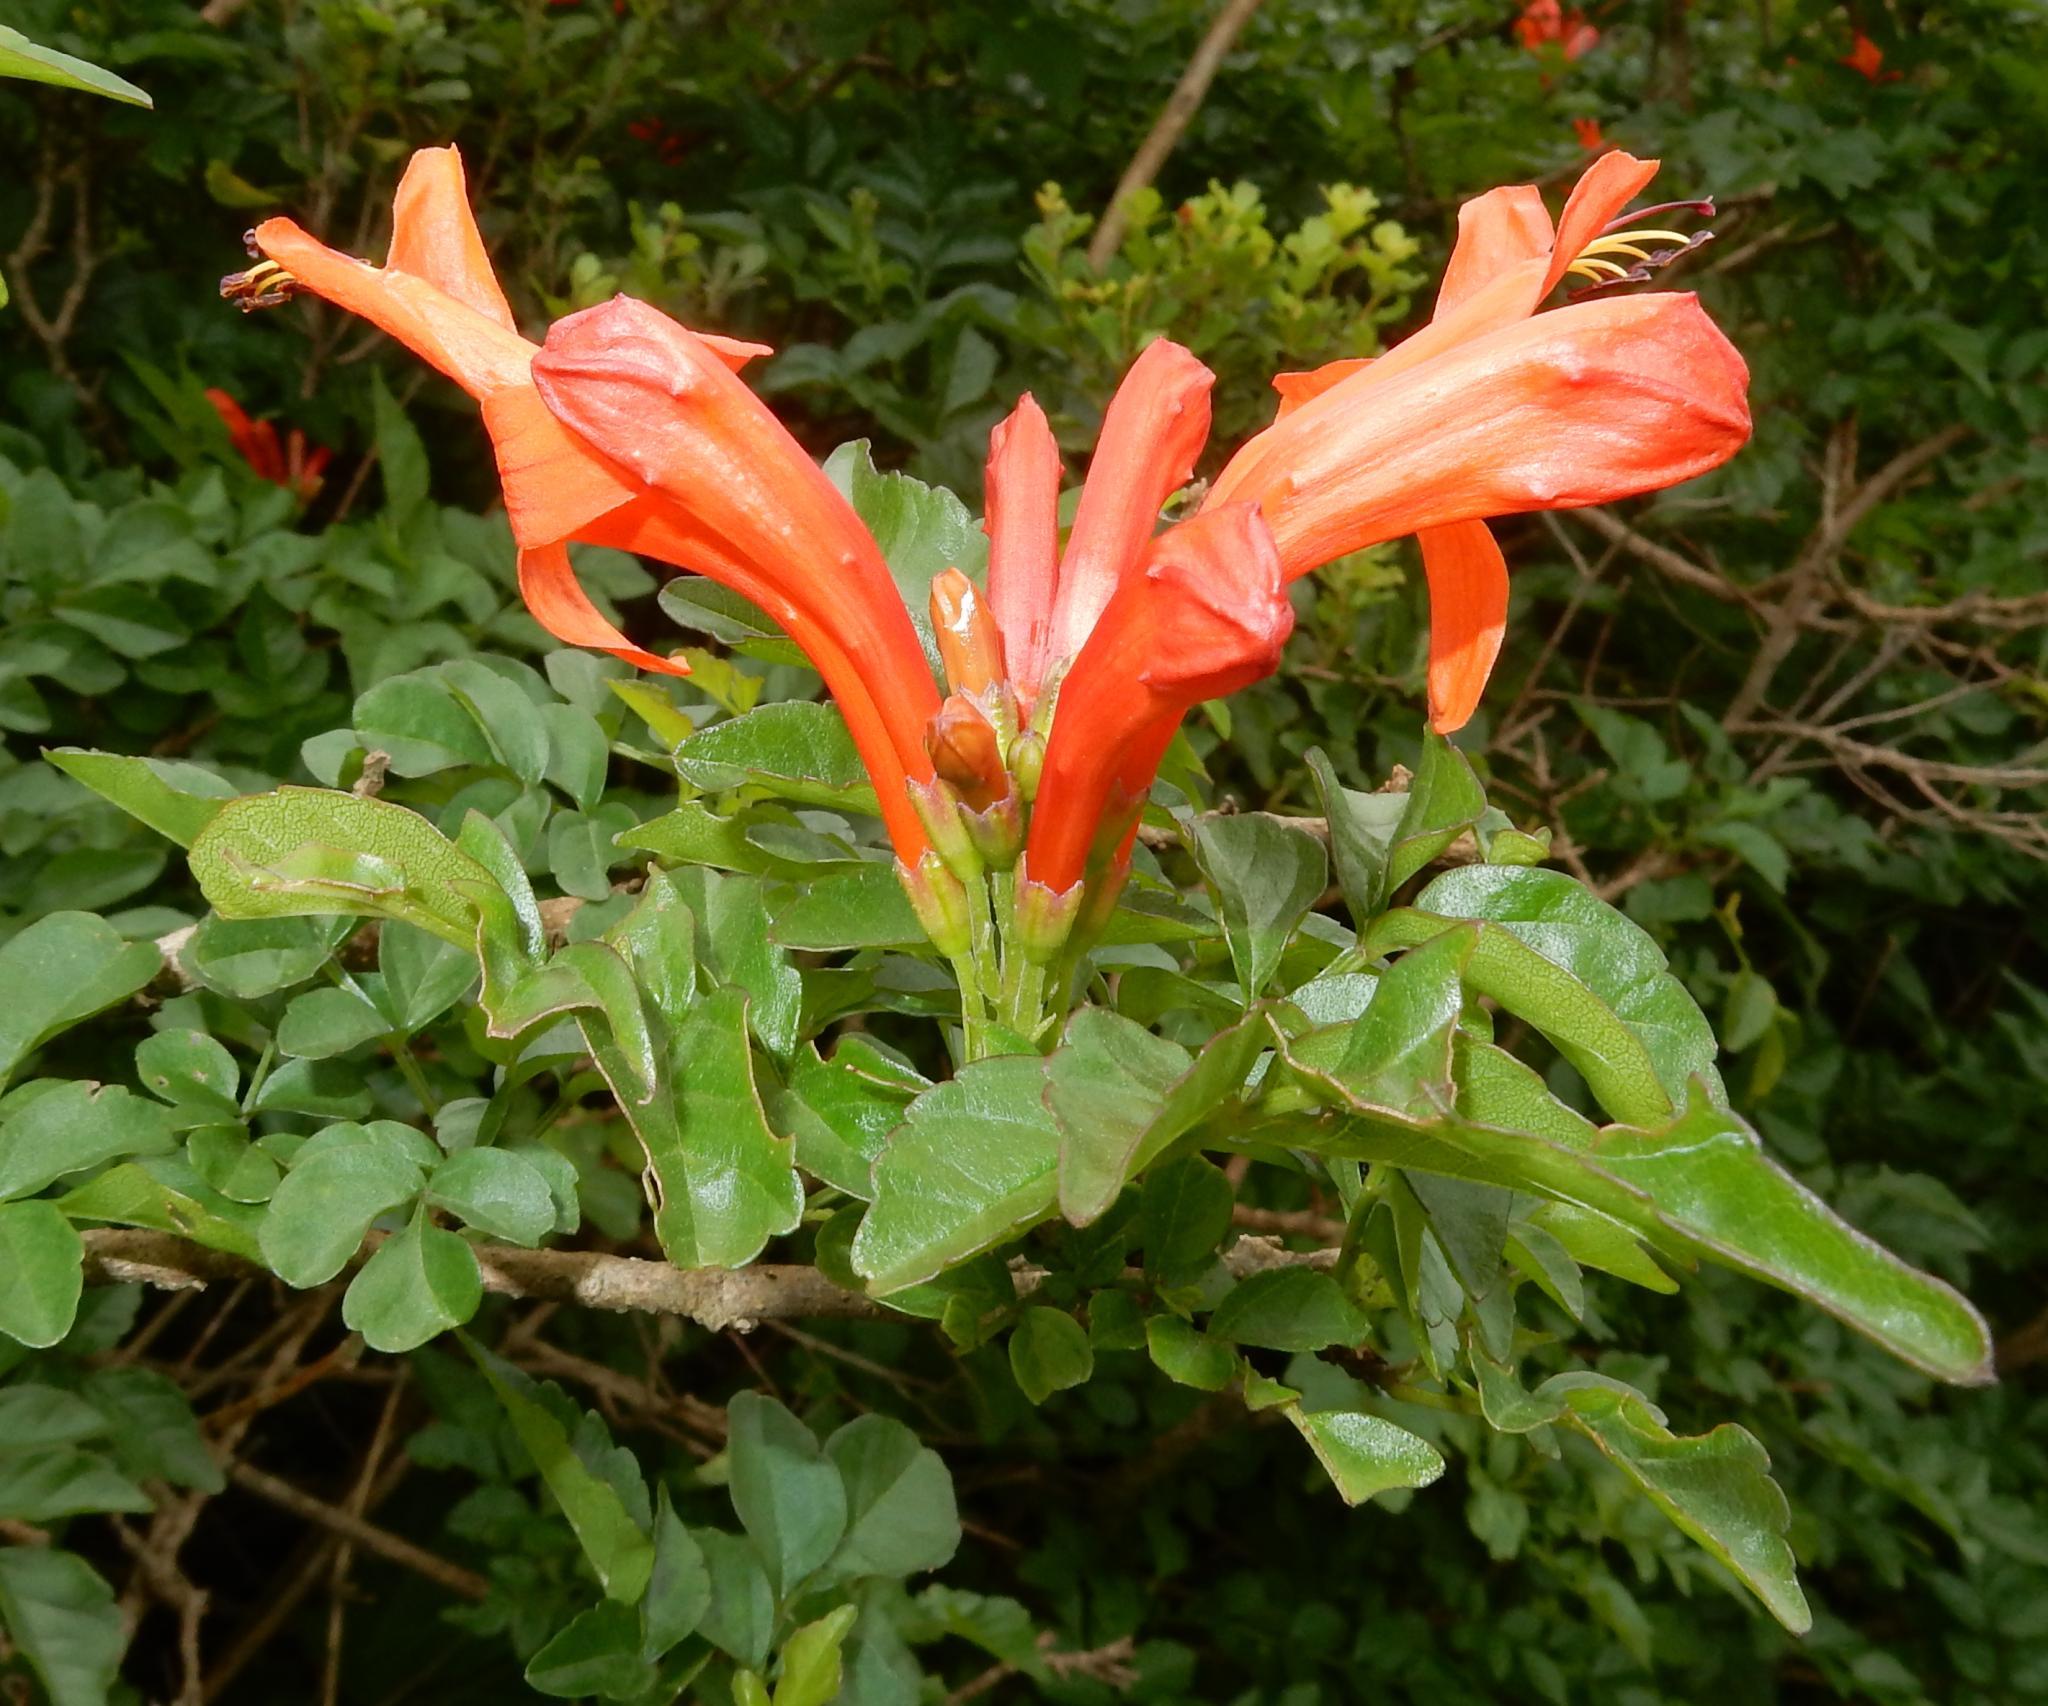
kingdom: Plantae
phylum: Tracheophyta
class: Magnoliopsida
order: Lamiales
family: Bignoniaceae
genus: Tecomaria
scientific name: Tecomaria capensis
